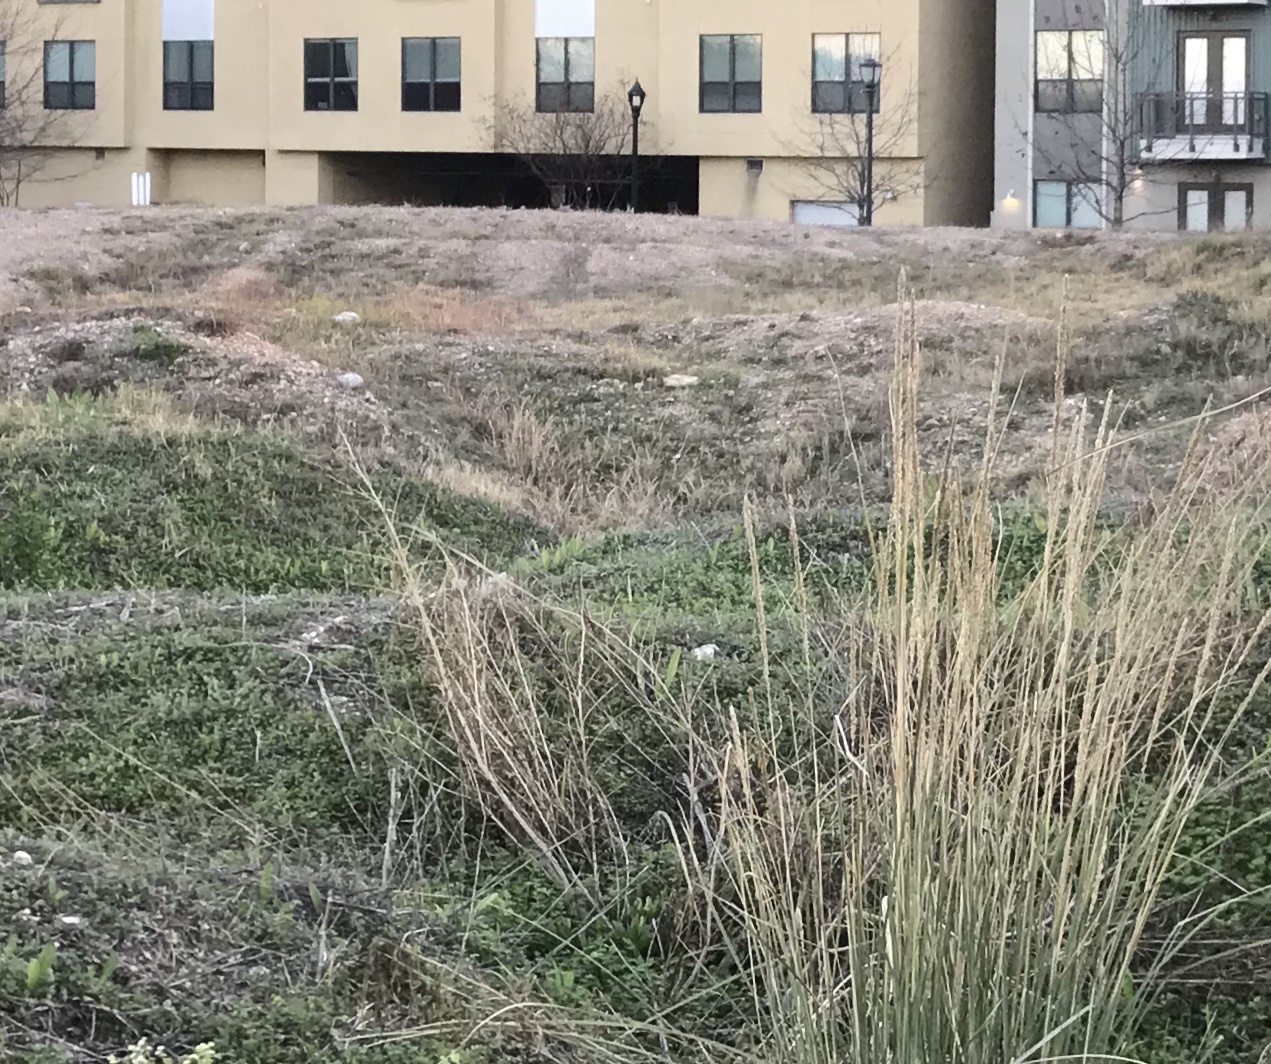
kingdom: Plantae
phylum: Tracheophyta
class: Liliopsida
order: Poales
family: Poaceae
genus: Muhlenbergia
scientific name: Muhlenbergia lindheimeri
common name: Lindheimer's muhly
